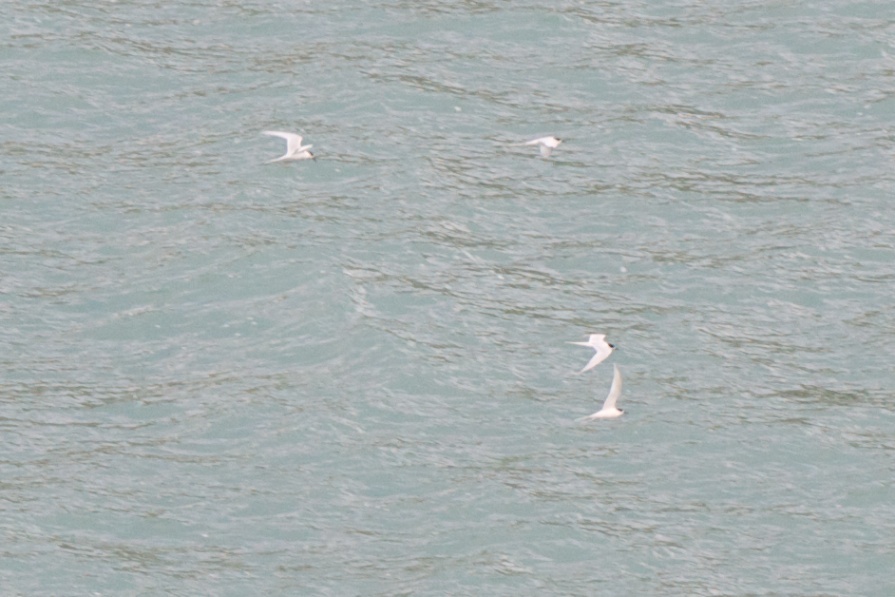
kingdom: Animalia
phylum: Chordata
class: Aves
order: Charadriiformes
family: Laridae
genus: Sterna
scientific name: Sterna striata
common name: White-fronted tern
